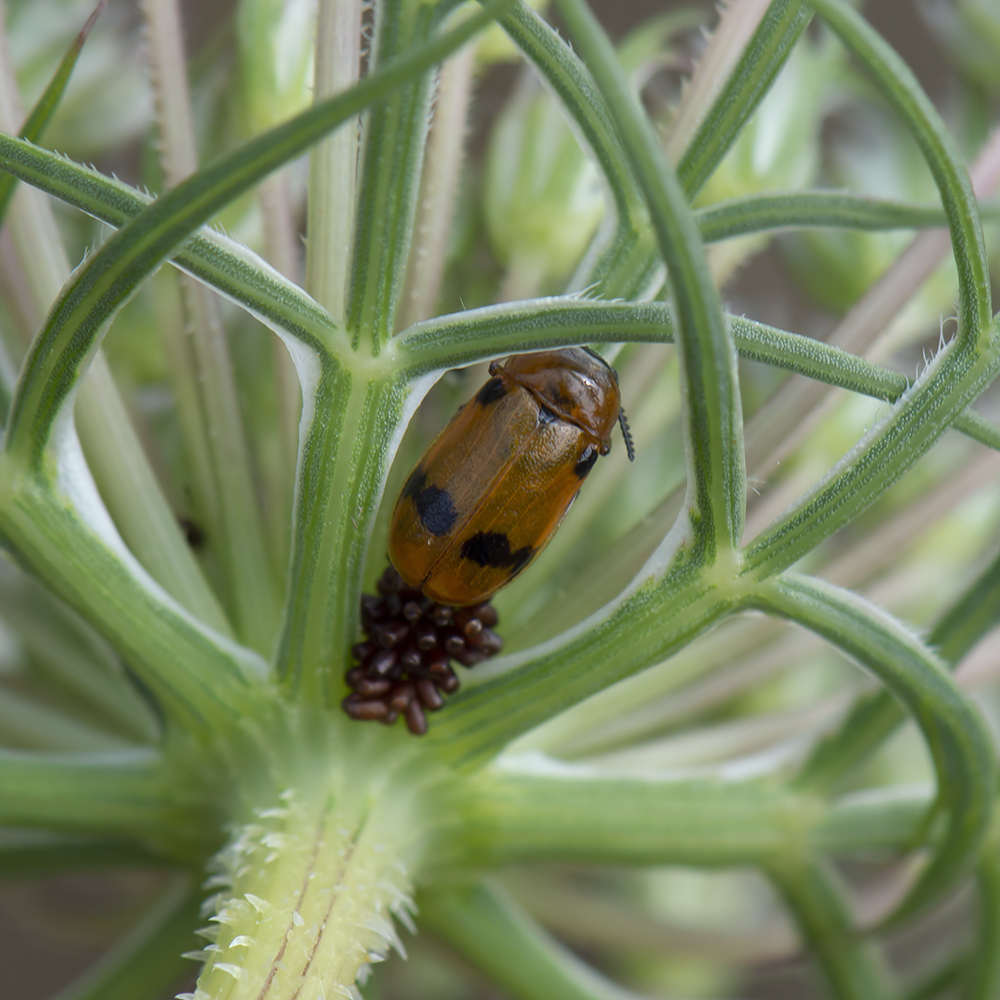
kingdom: Animalia
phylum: Arthropoda
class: Insecta
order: Coleoptera
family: Chrysomelidae
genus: Macrolenes
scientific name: Macrolenes dentipes
